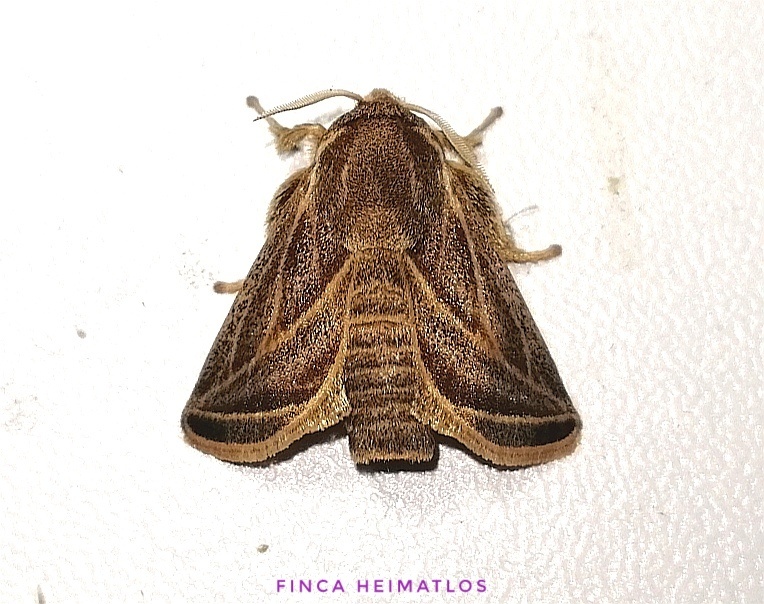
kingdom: Animalia
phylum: Arthropoda
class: Insecta
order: Lepidoptera
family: Limacodidae
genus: Natada
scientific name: Natada fusca
